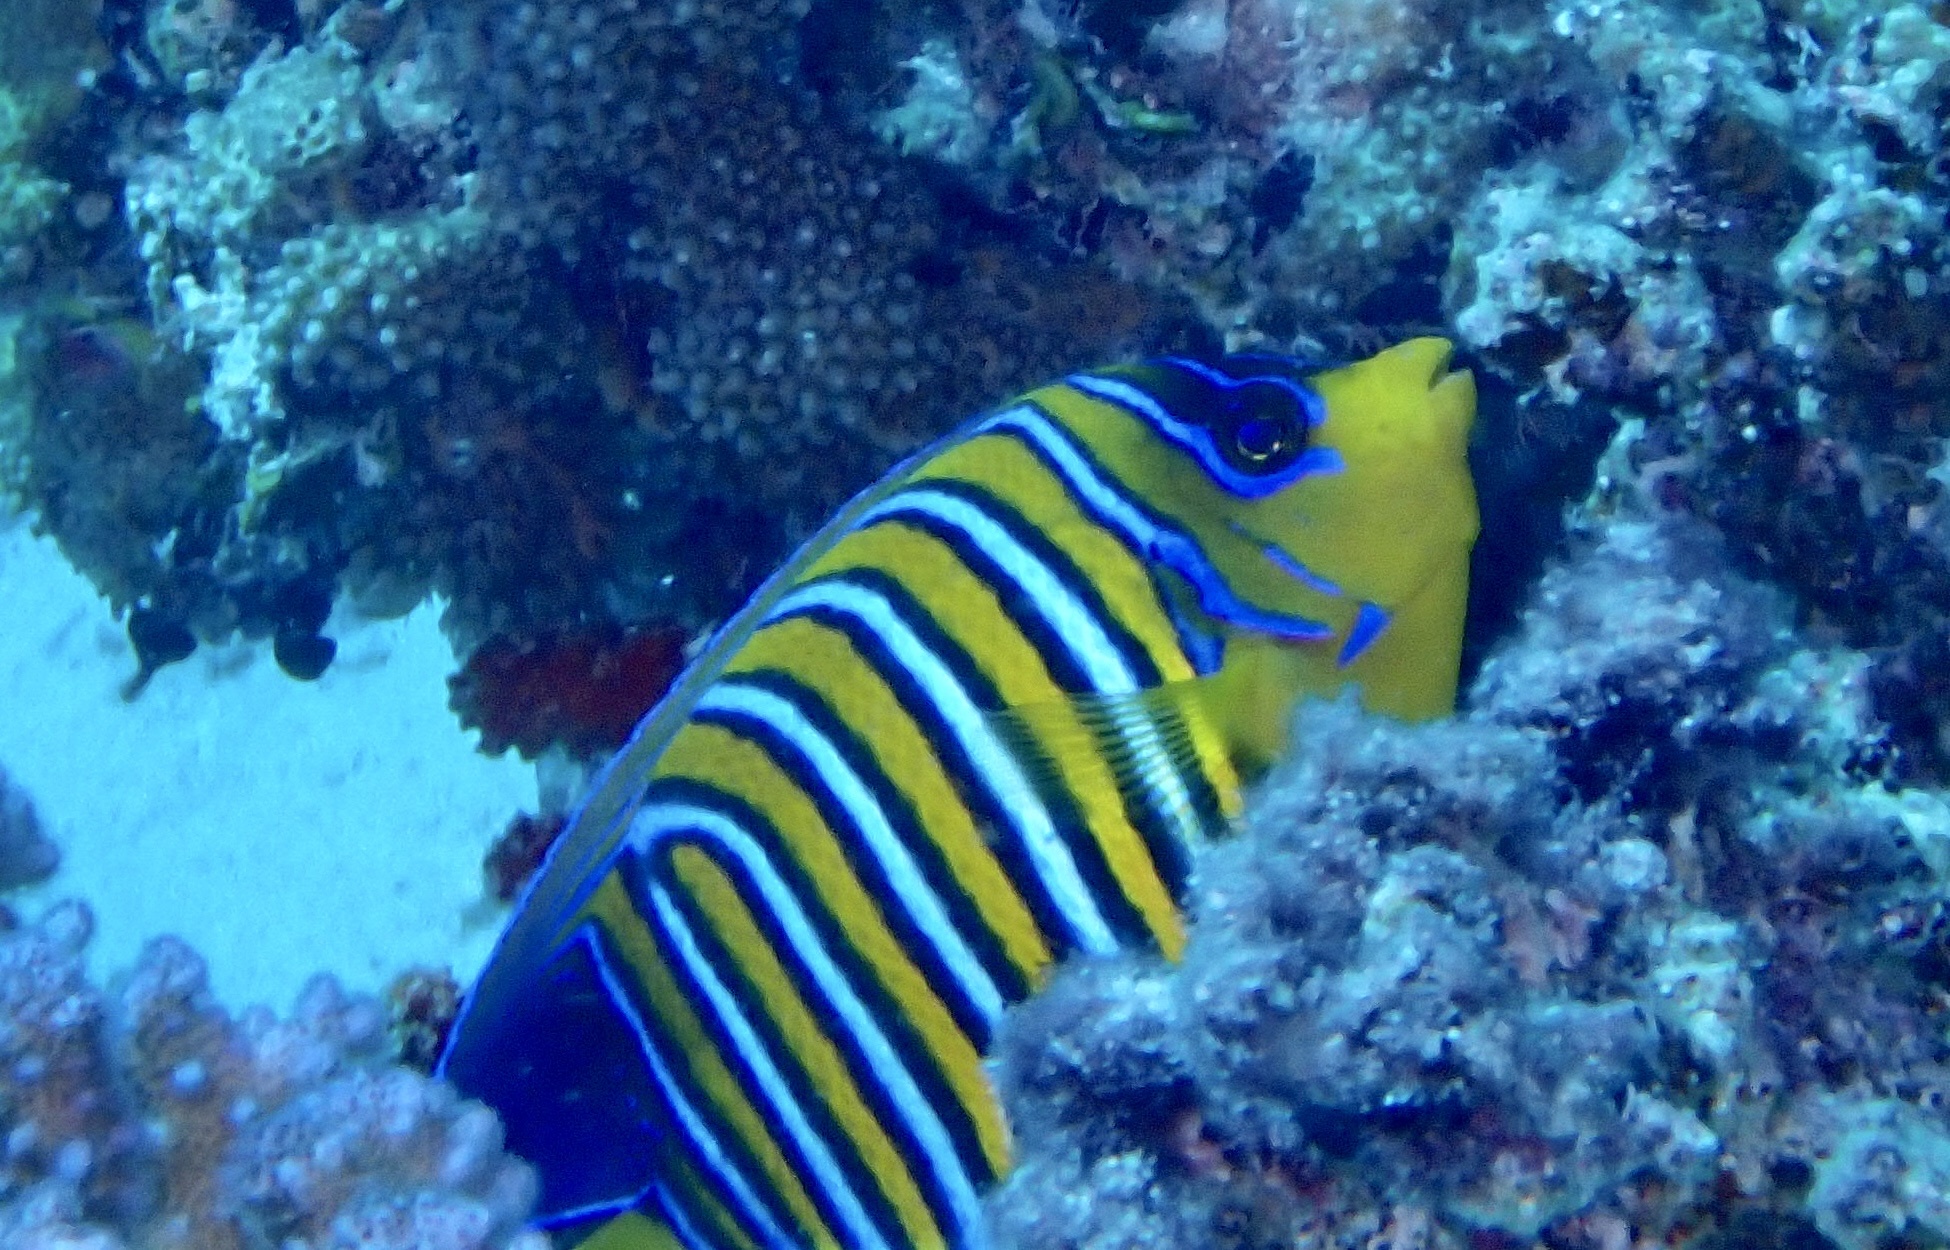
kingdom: Animalia
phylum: Chordata
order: Perciformes
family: Pomacanthidae
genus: Pygoplites
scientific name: Pygoplites diacanthus
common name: Regal angelfish
